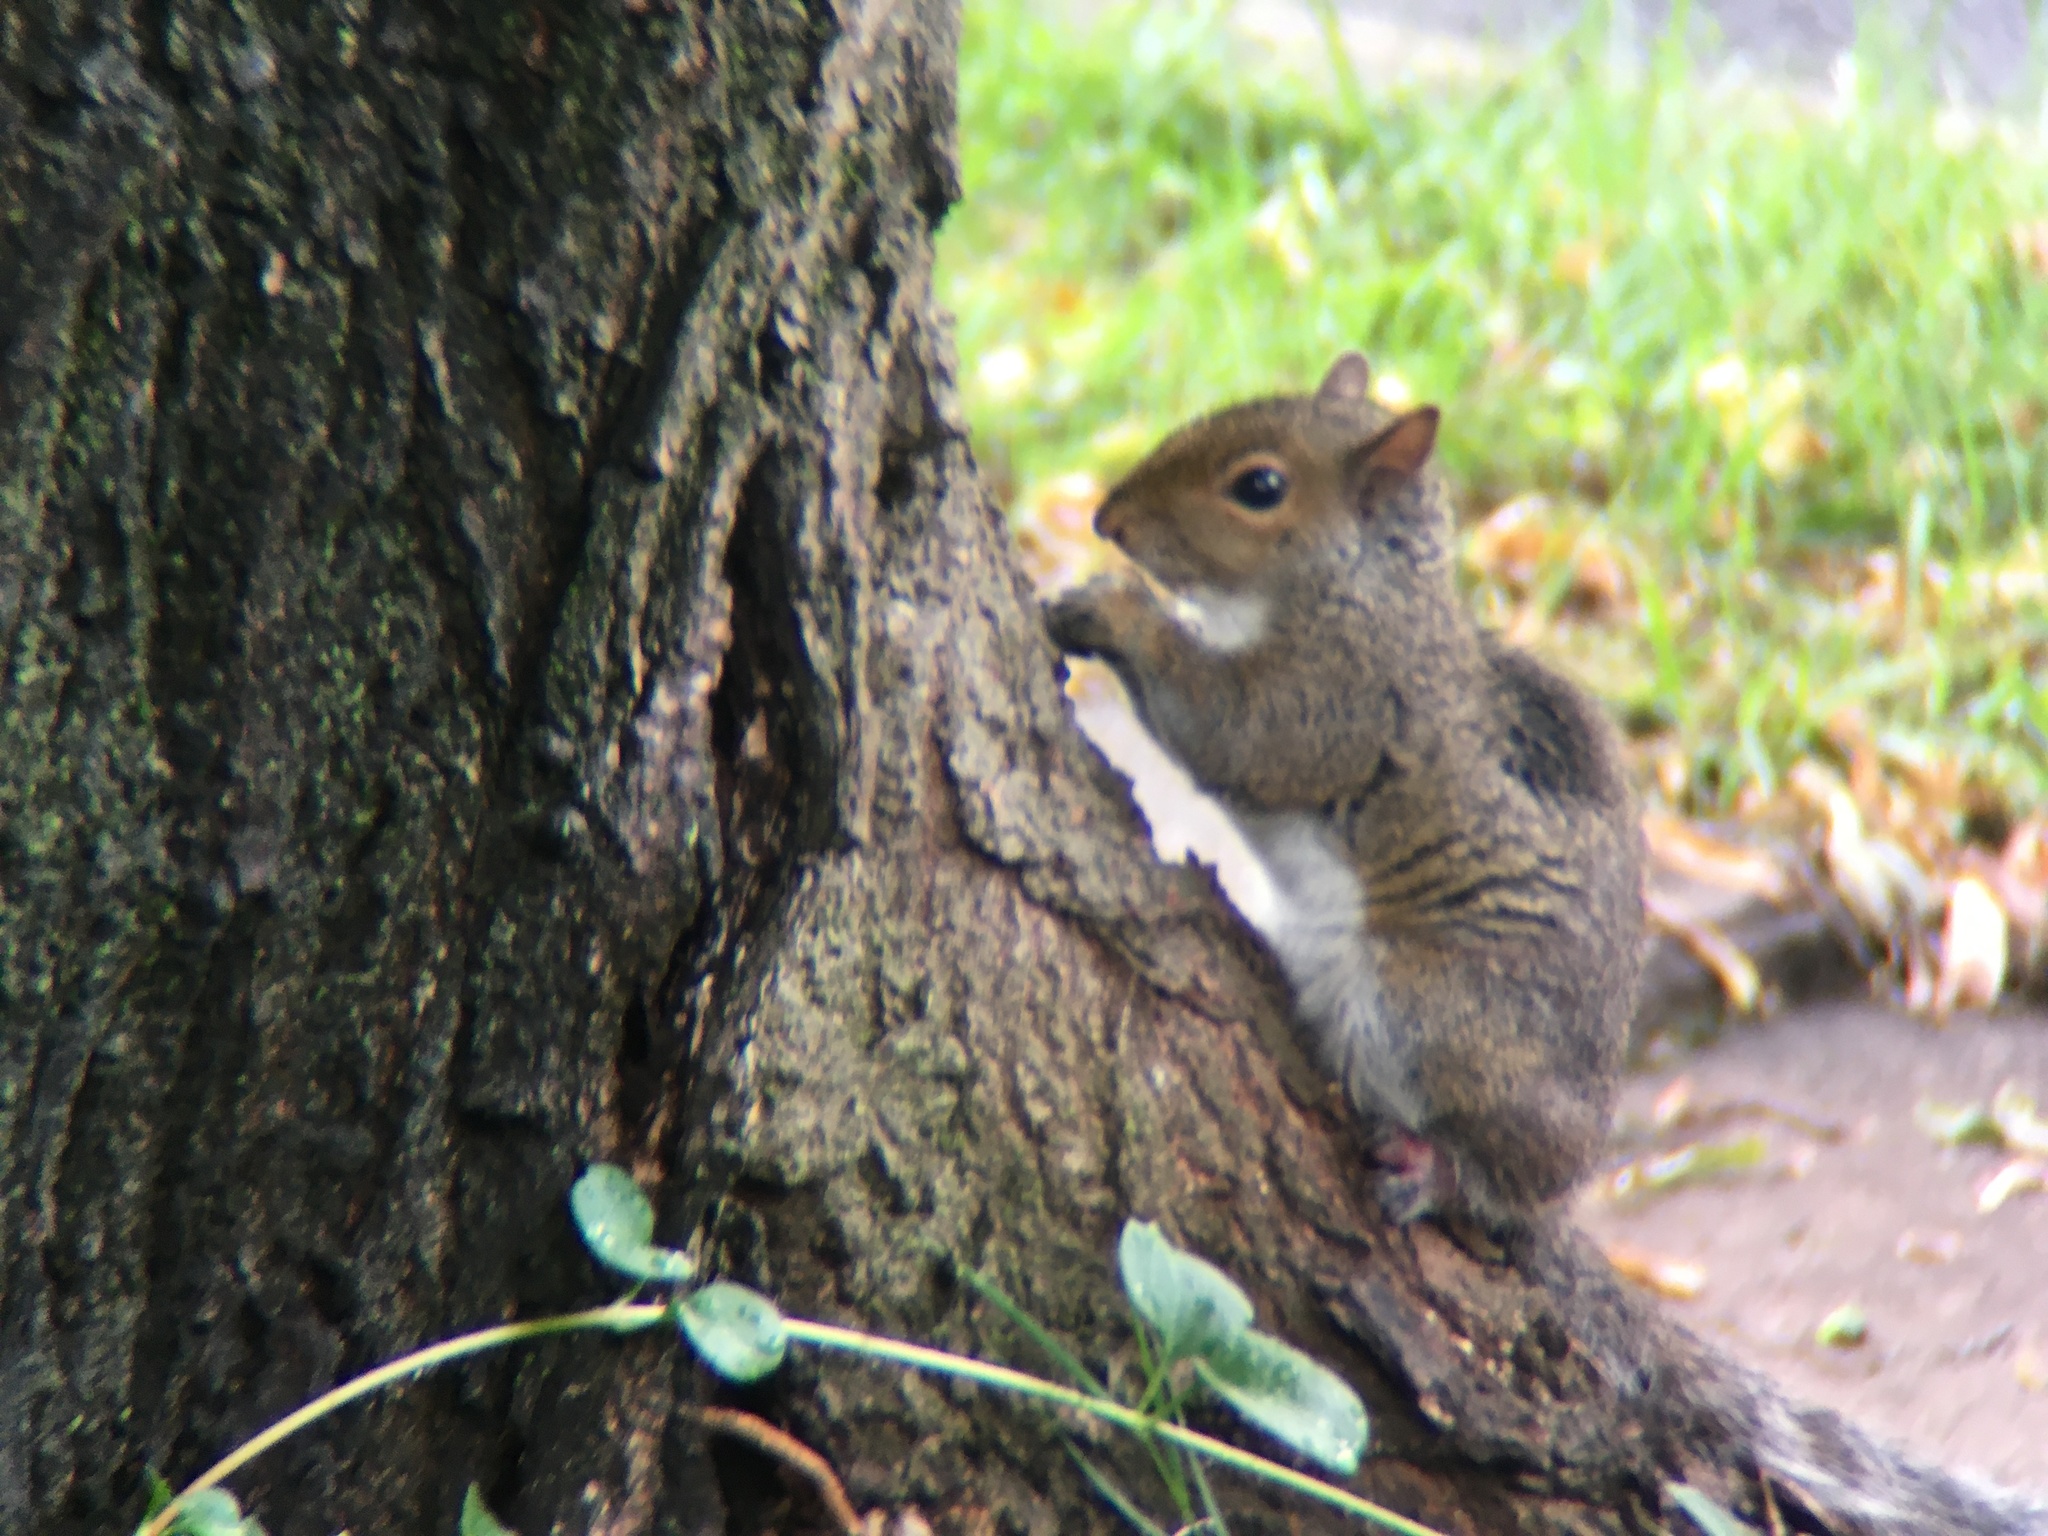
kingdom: Animalia
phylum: Chordata
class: Mammalia
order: Rodentia
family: Sciuridae
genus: Sciurus
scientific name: Sciurus carolinensis
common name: Eastern gray squirrel
